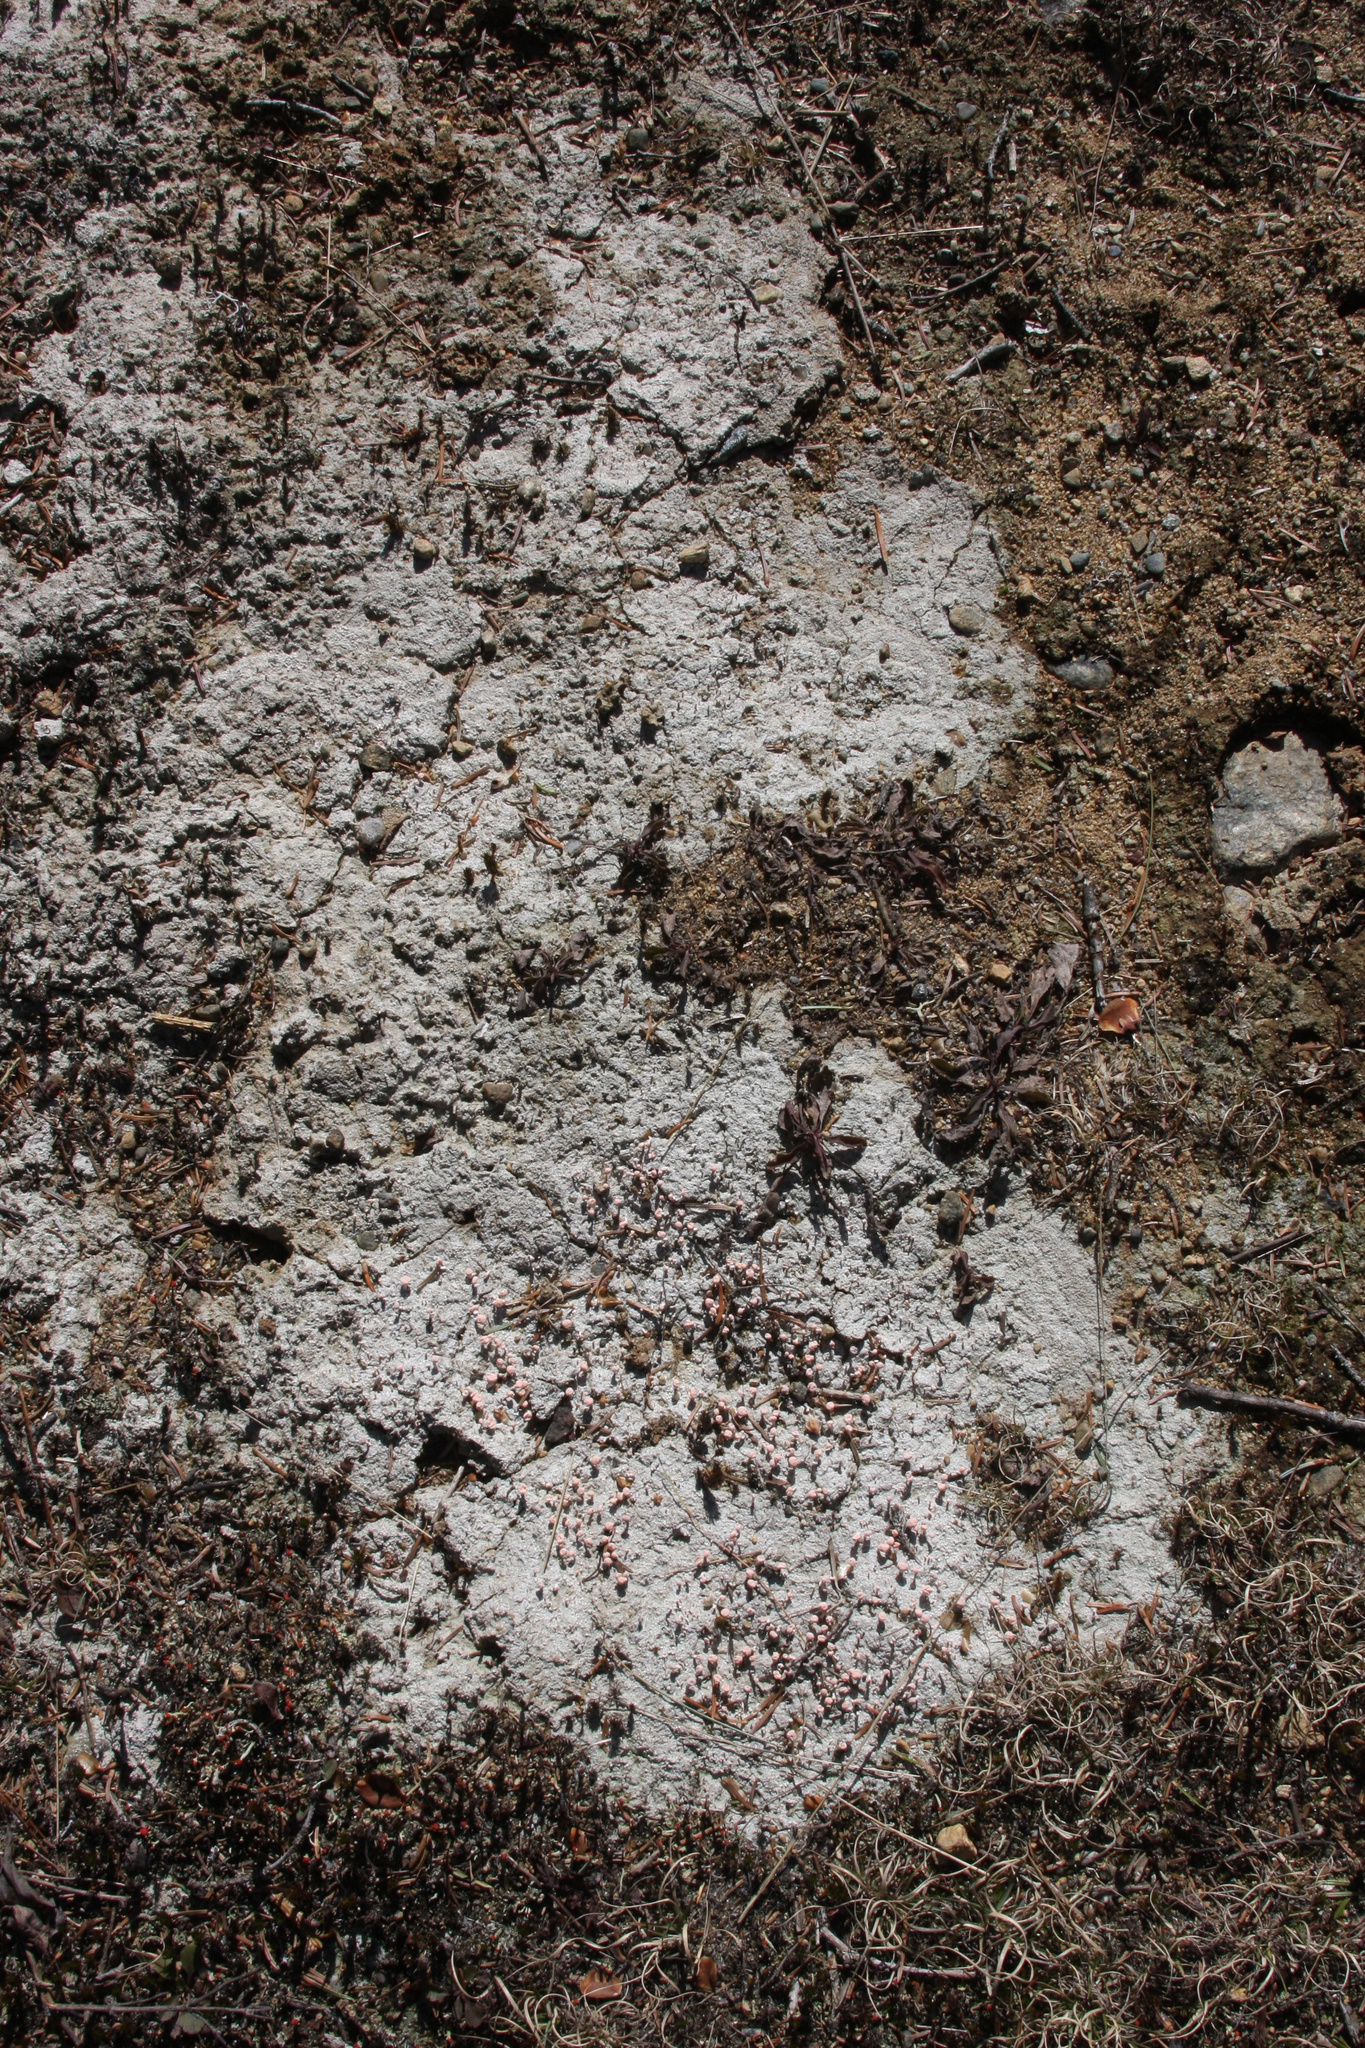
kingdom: Fungi
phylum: Ascomycota
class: Lecanoromycetes
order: Pertusariales
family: Icmadophilaceae
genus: Dibaeis
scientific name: Dibaeis baeomyces
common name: Pink earth lichen
